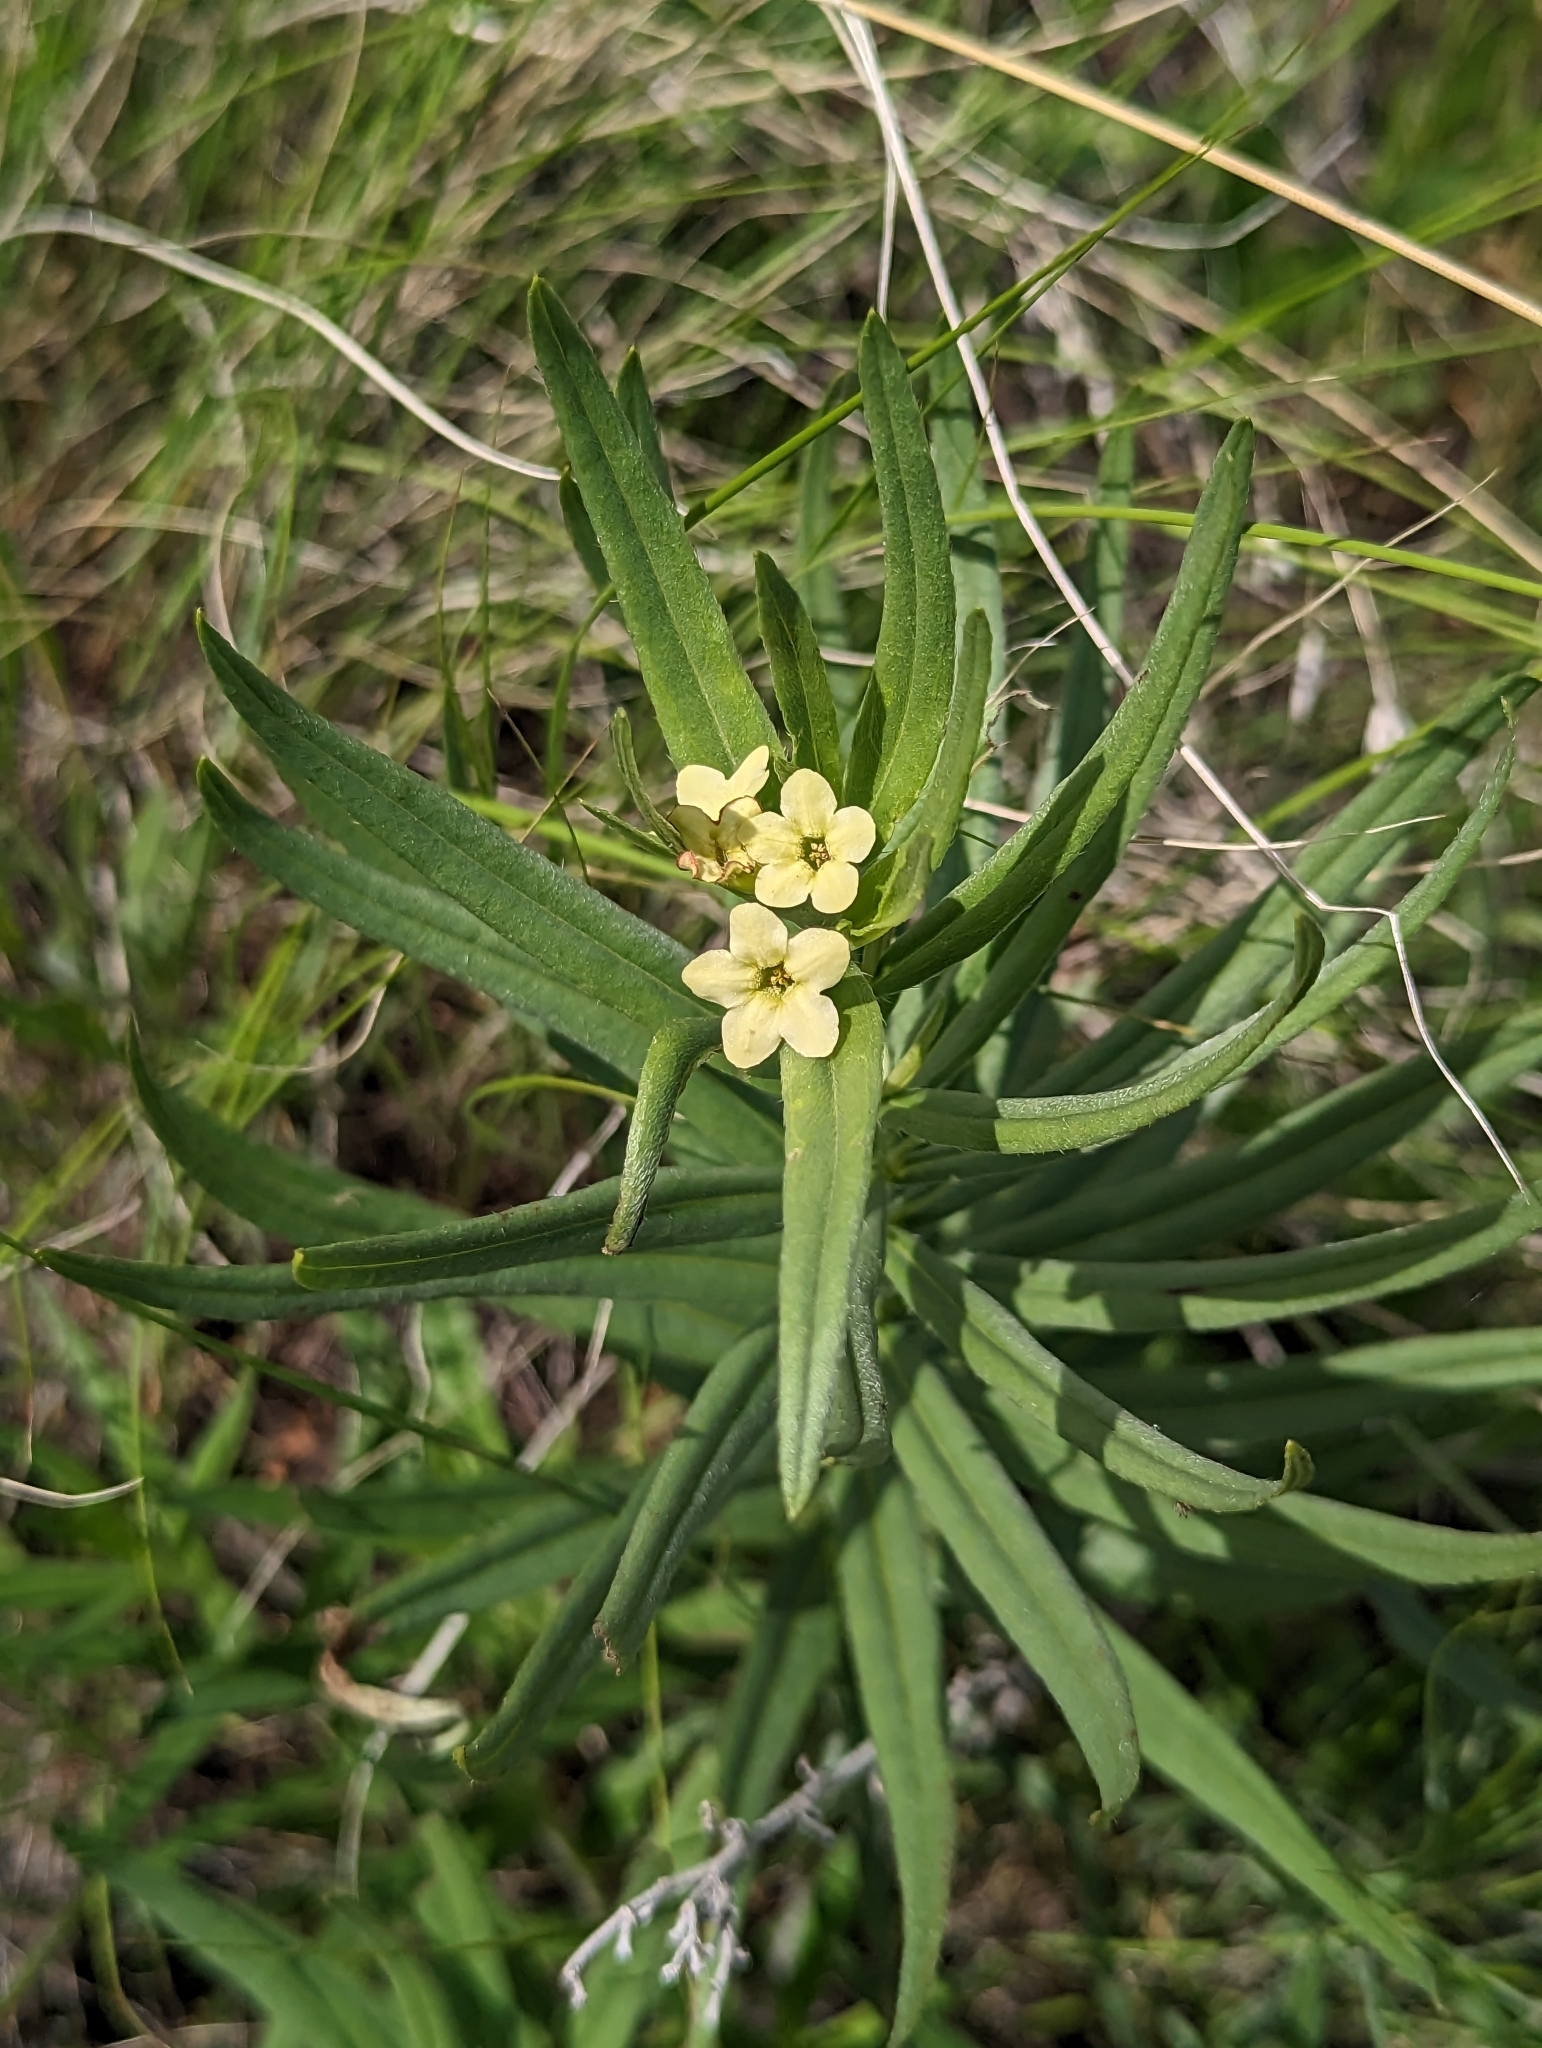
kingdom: Plantae
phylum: Tracheophyta
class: Magnoliopsida
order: Boraginales
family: Boraginaceae
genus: Lithospermum
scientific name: Lithospermum ruderale
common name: Western gromwell
